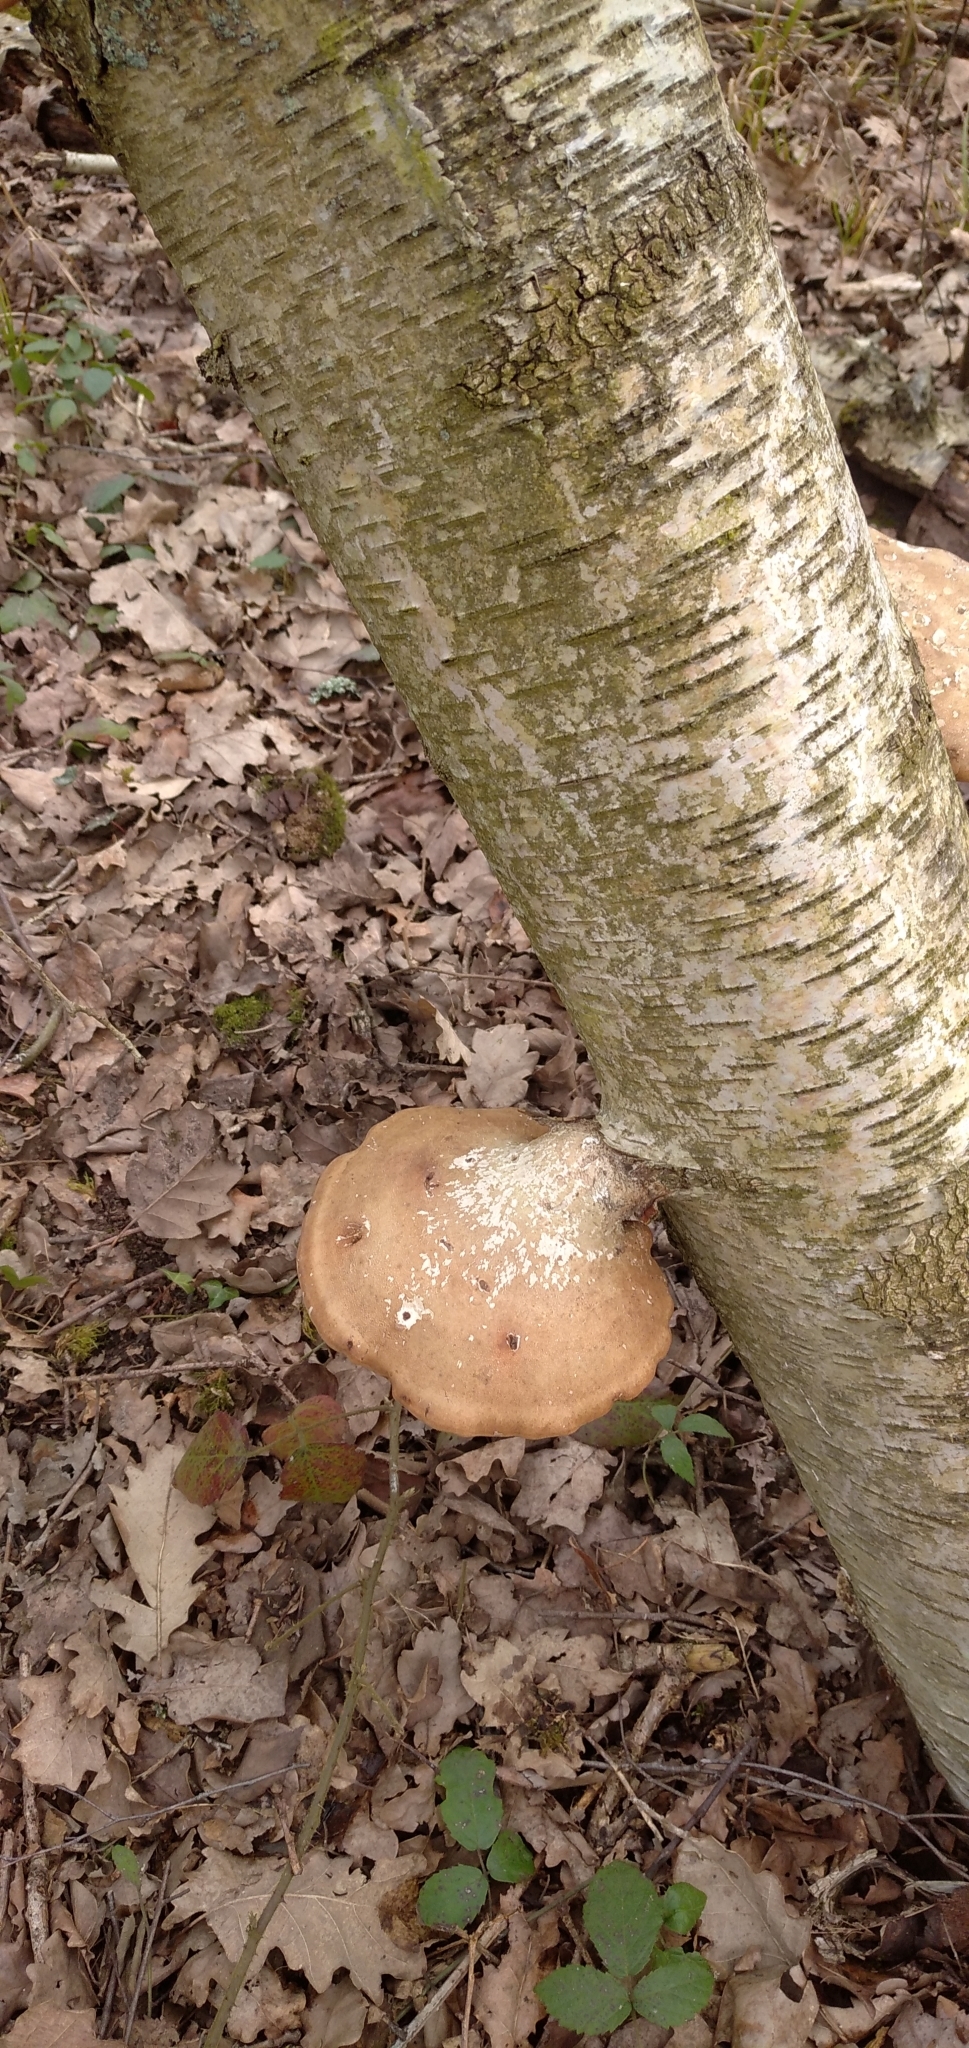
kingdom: Fungi
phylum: Basidiomycota
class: Agaricomycetes
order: Polyporales
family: Fomitopsidaceae
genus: Fomitopsis
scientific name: Fomitopsis betulina
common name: Birch polypore
